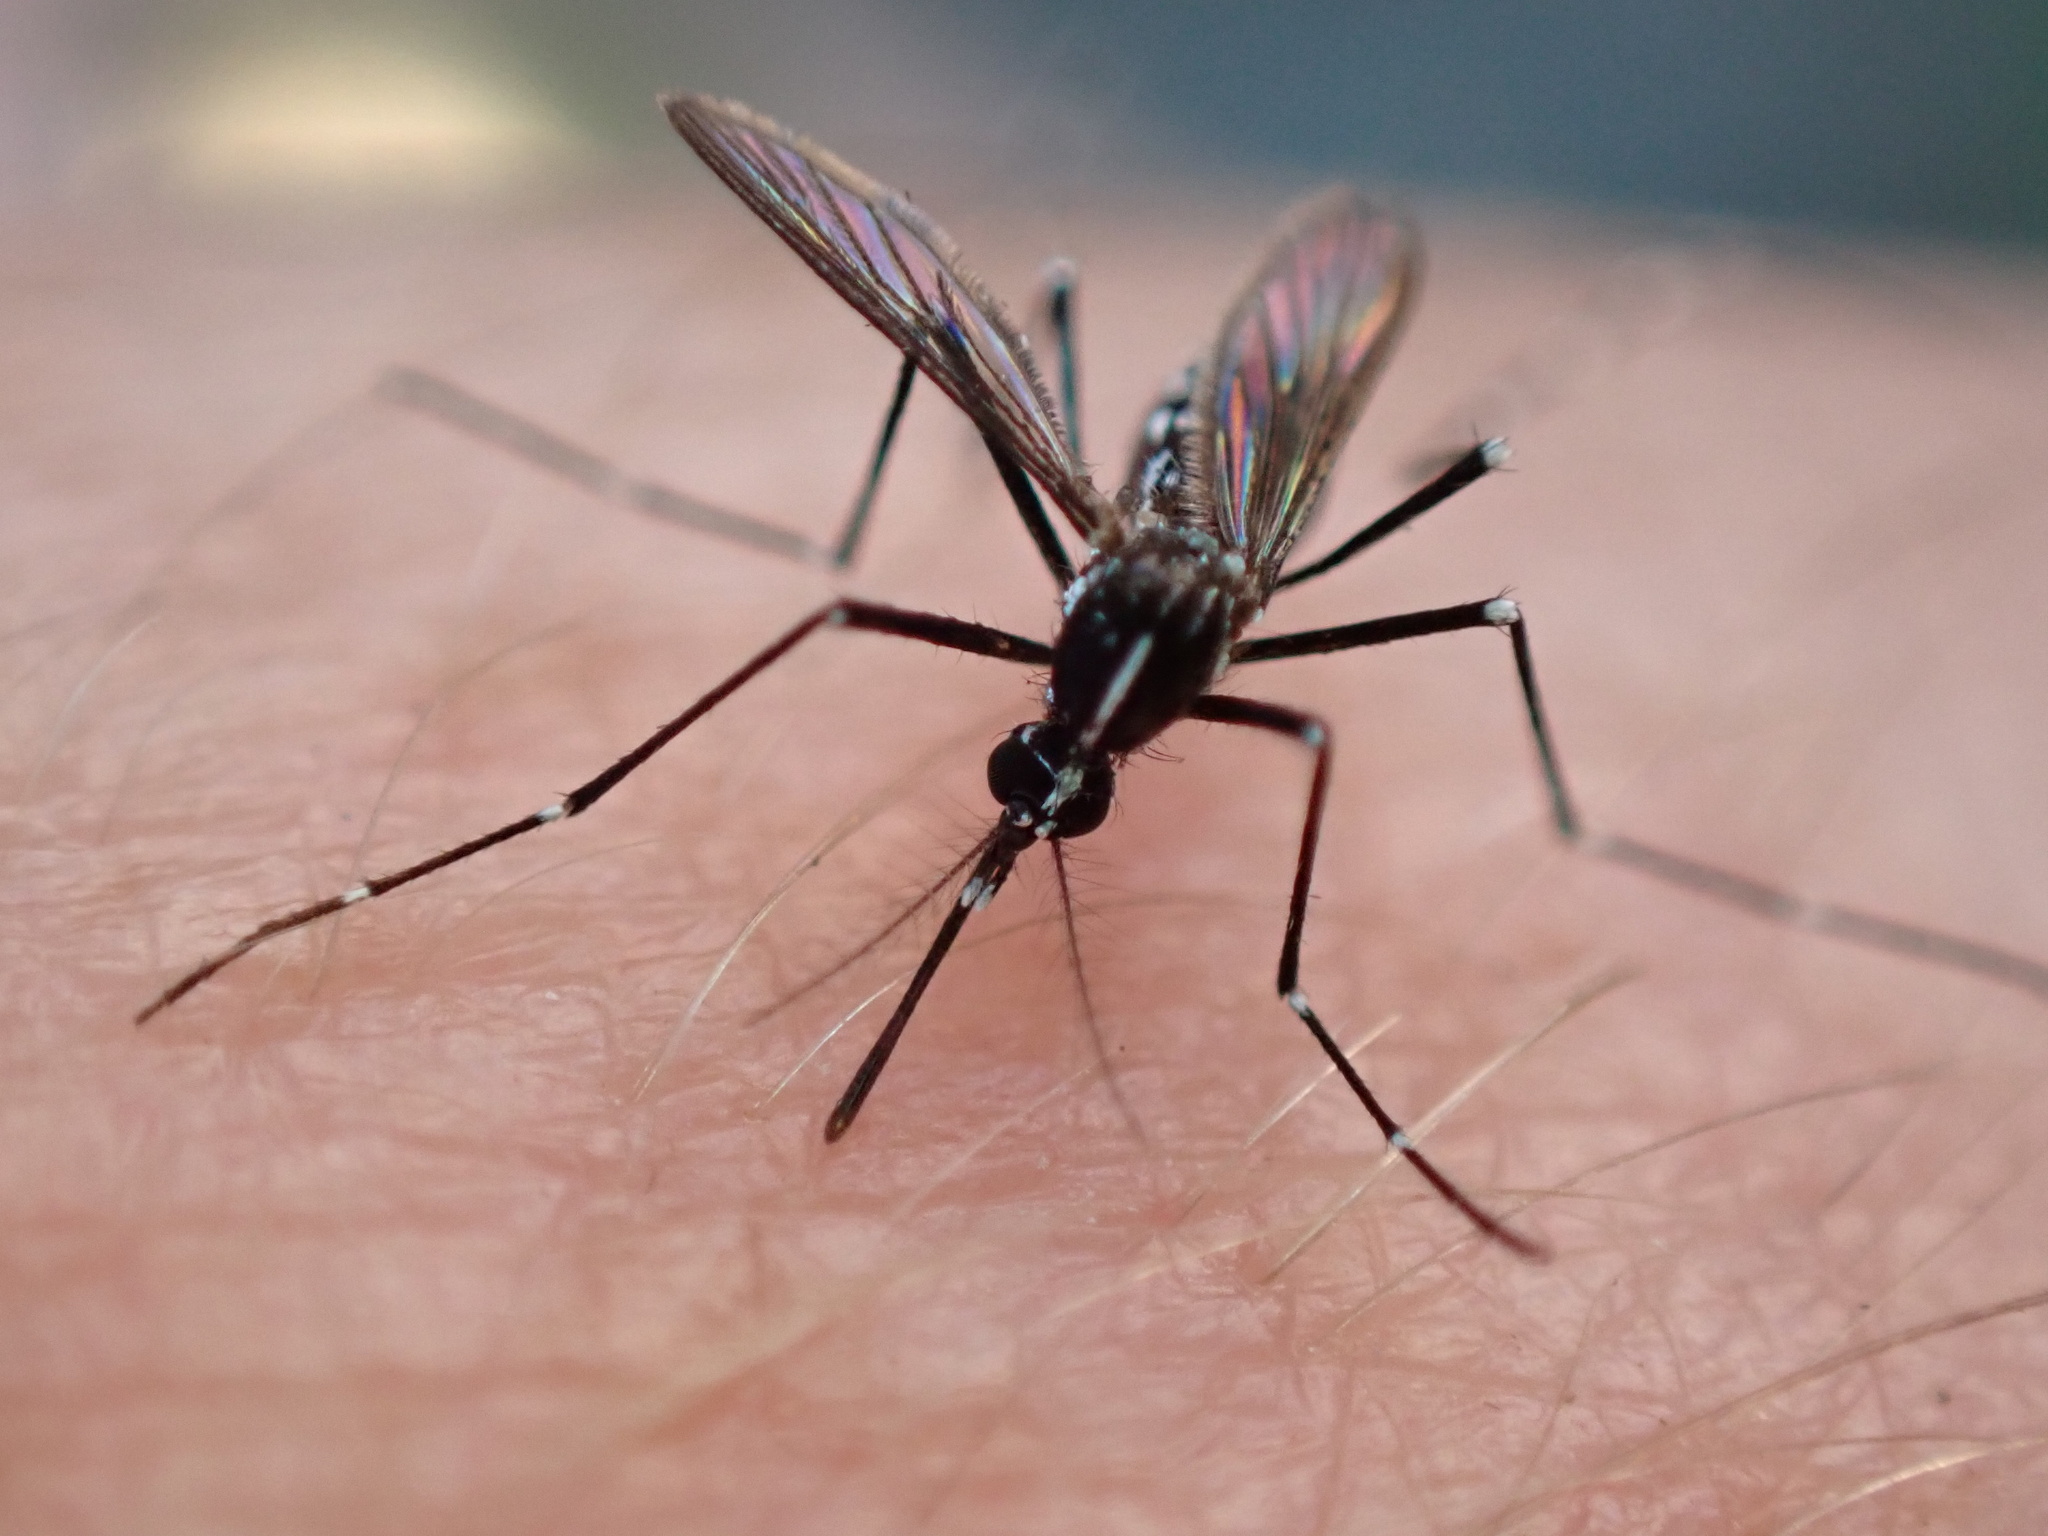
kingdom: Animalia
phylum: Arthropoda
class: Insecta
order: Diptera
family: Culicidae
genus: Aedes
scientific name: Aedes albopictus
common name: Tiger mosquito
